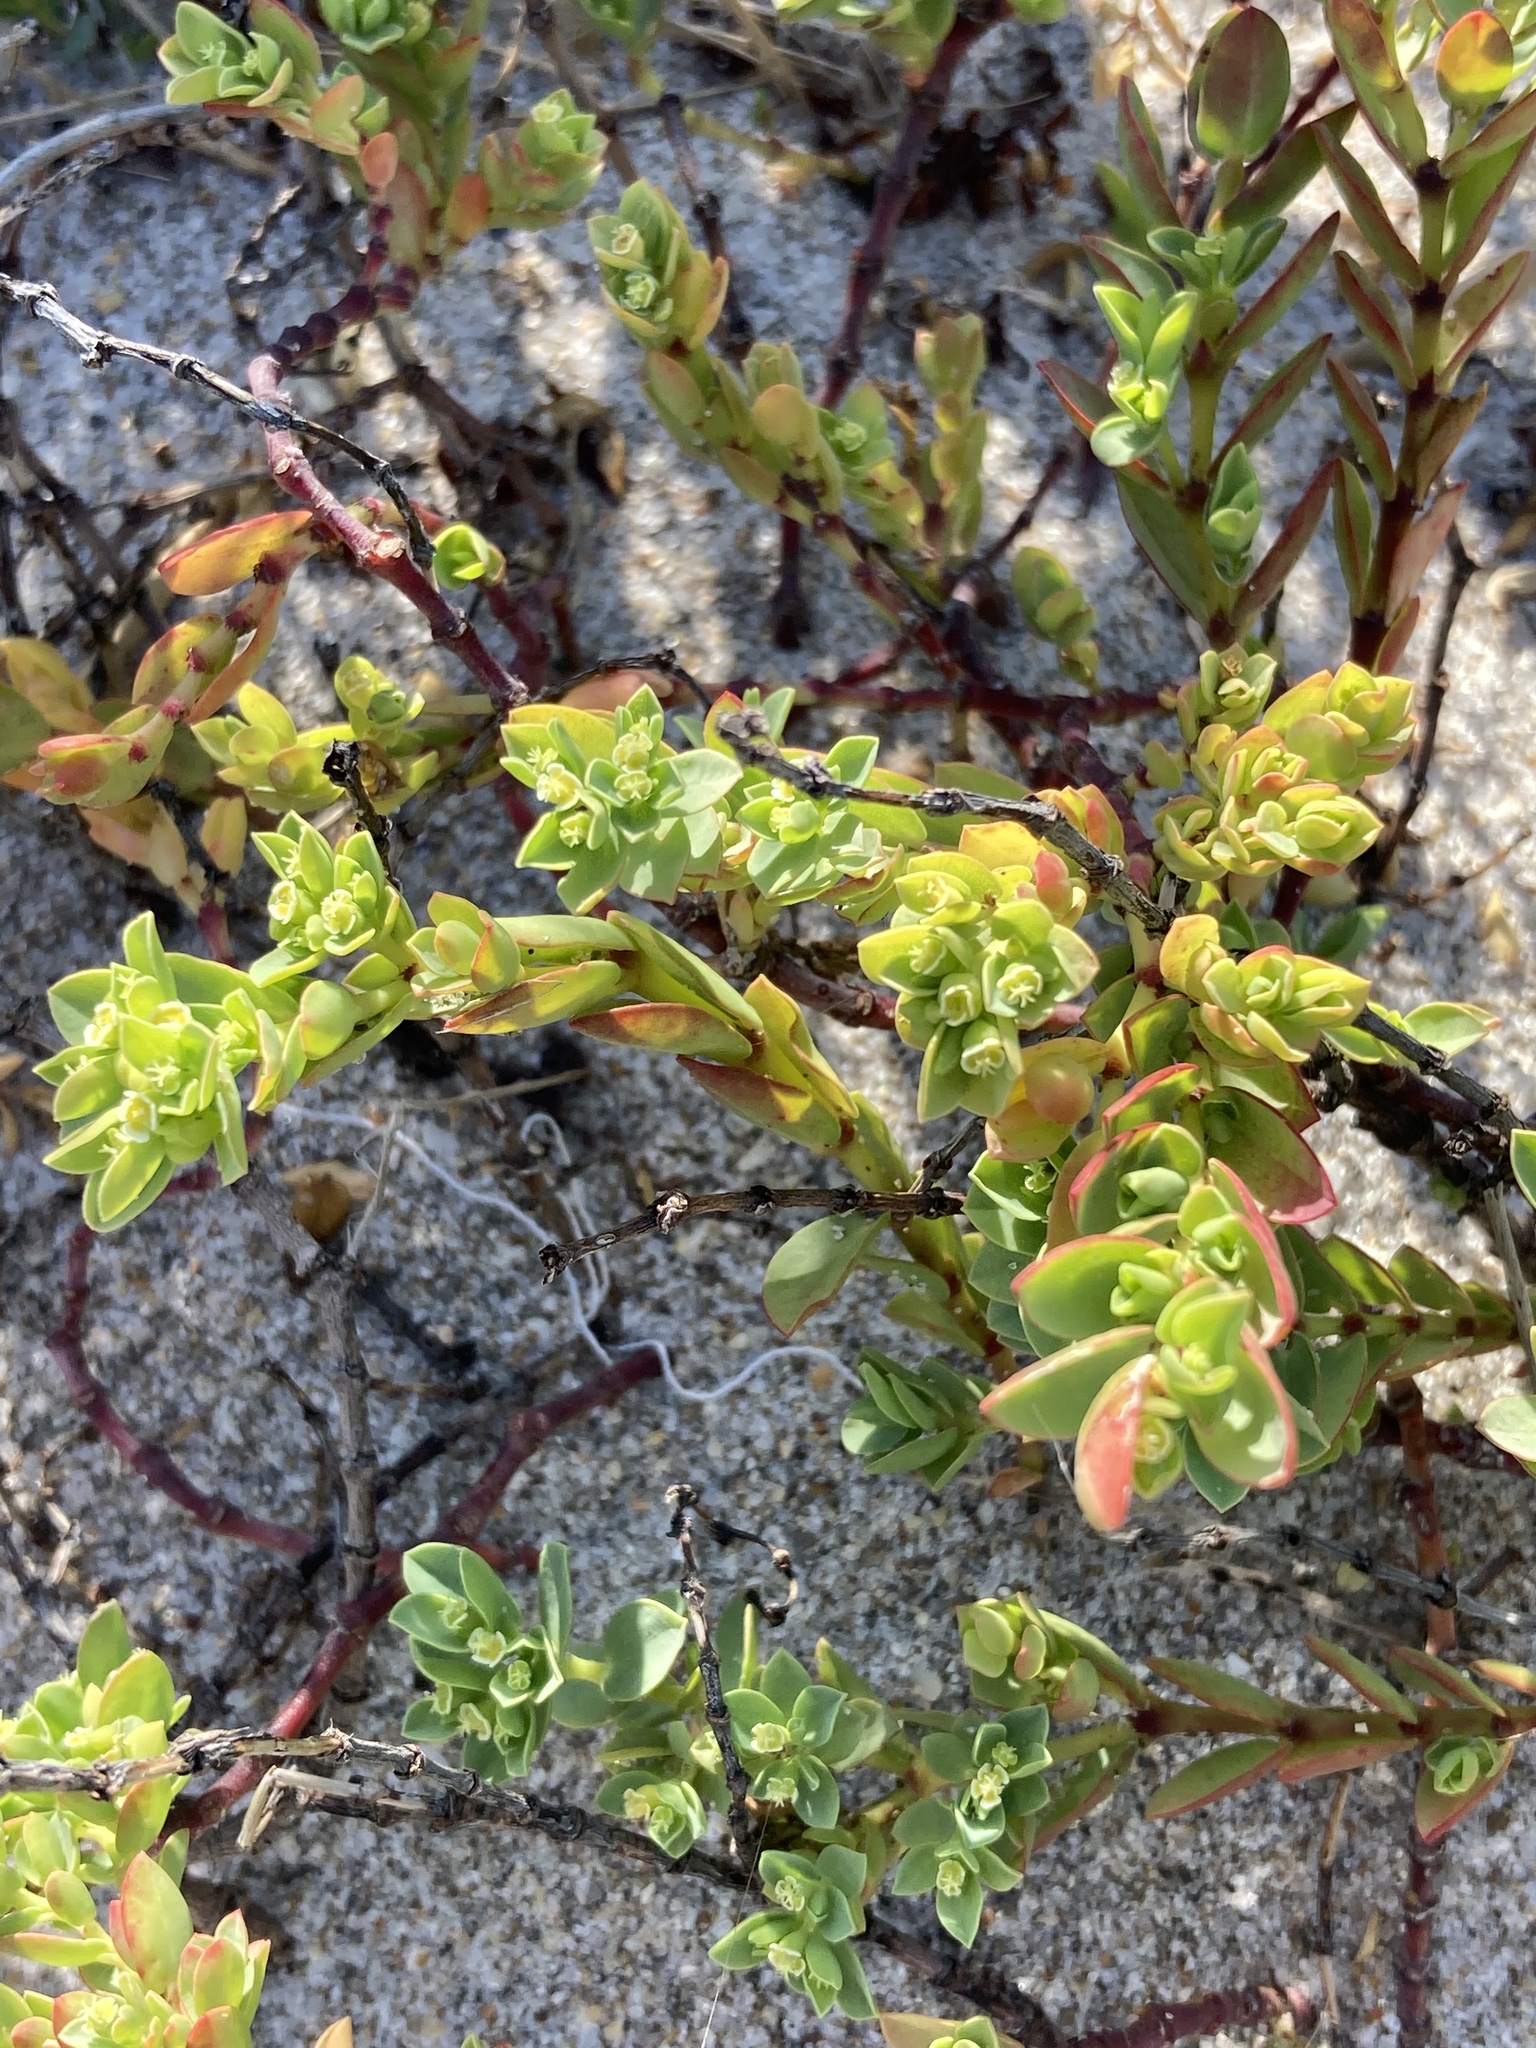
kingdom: Plantae
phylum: Tracheophyta
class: Magnoliopsida
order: Malpighiales
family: Euphorbiaceae
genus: Euphorbia
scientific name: Euphorbia mesembryanthemifolia
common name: Coastal beach sandmat
